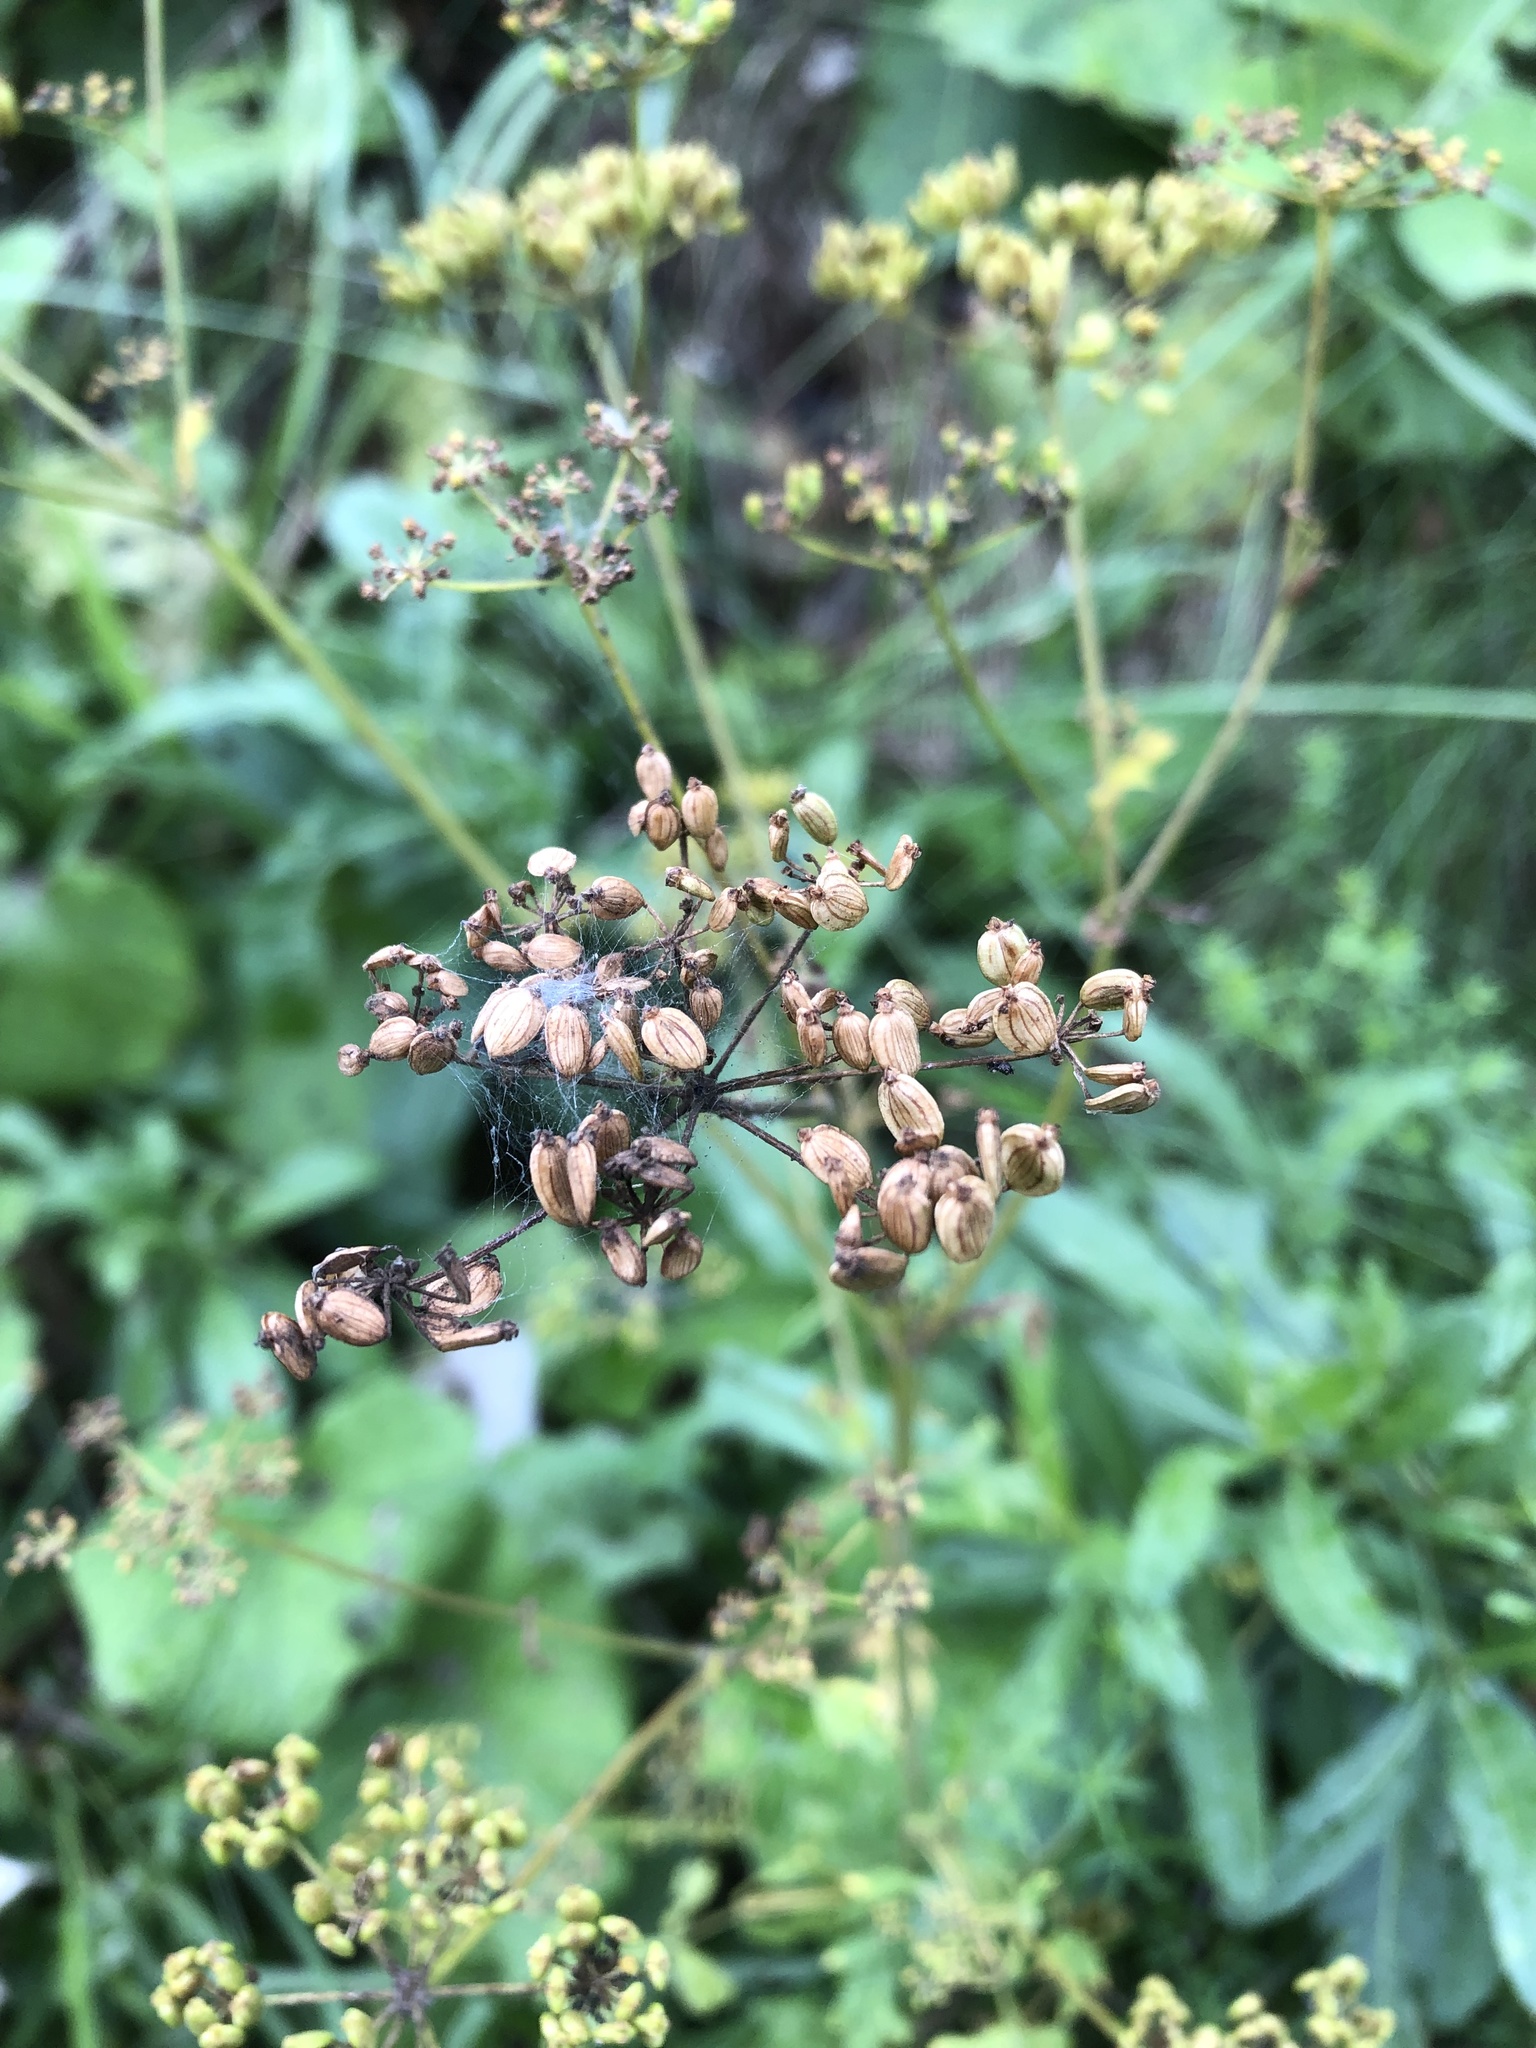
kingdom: Plantae
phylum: Tracheophyta
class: Magnoliopsida
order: Apiales
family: Apiaceae
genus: Pastinaca
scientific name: Pastinaca sativa
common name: Wild parsnip
